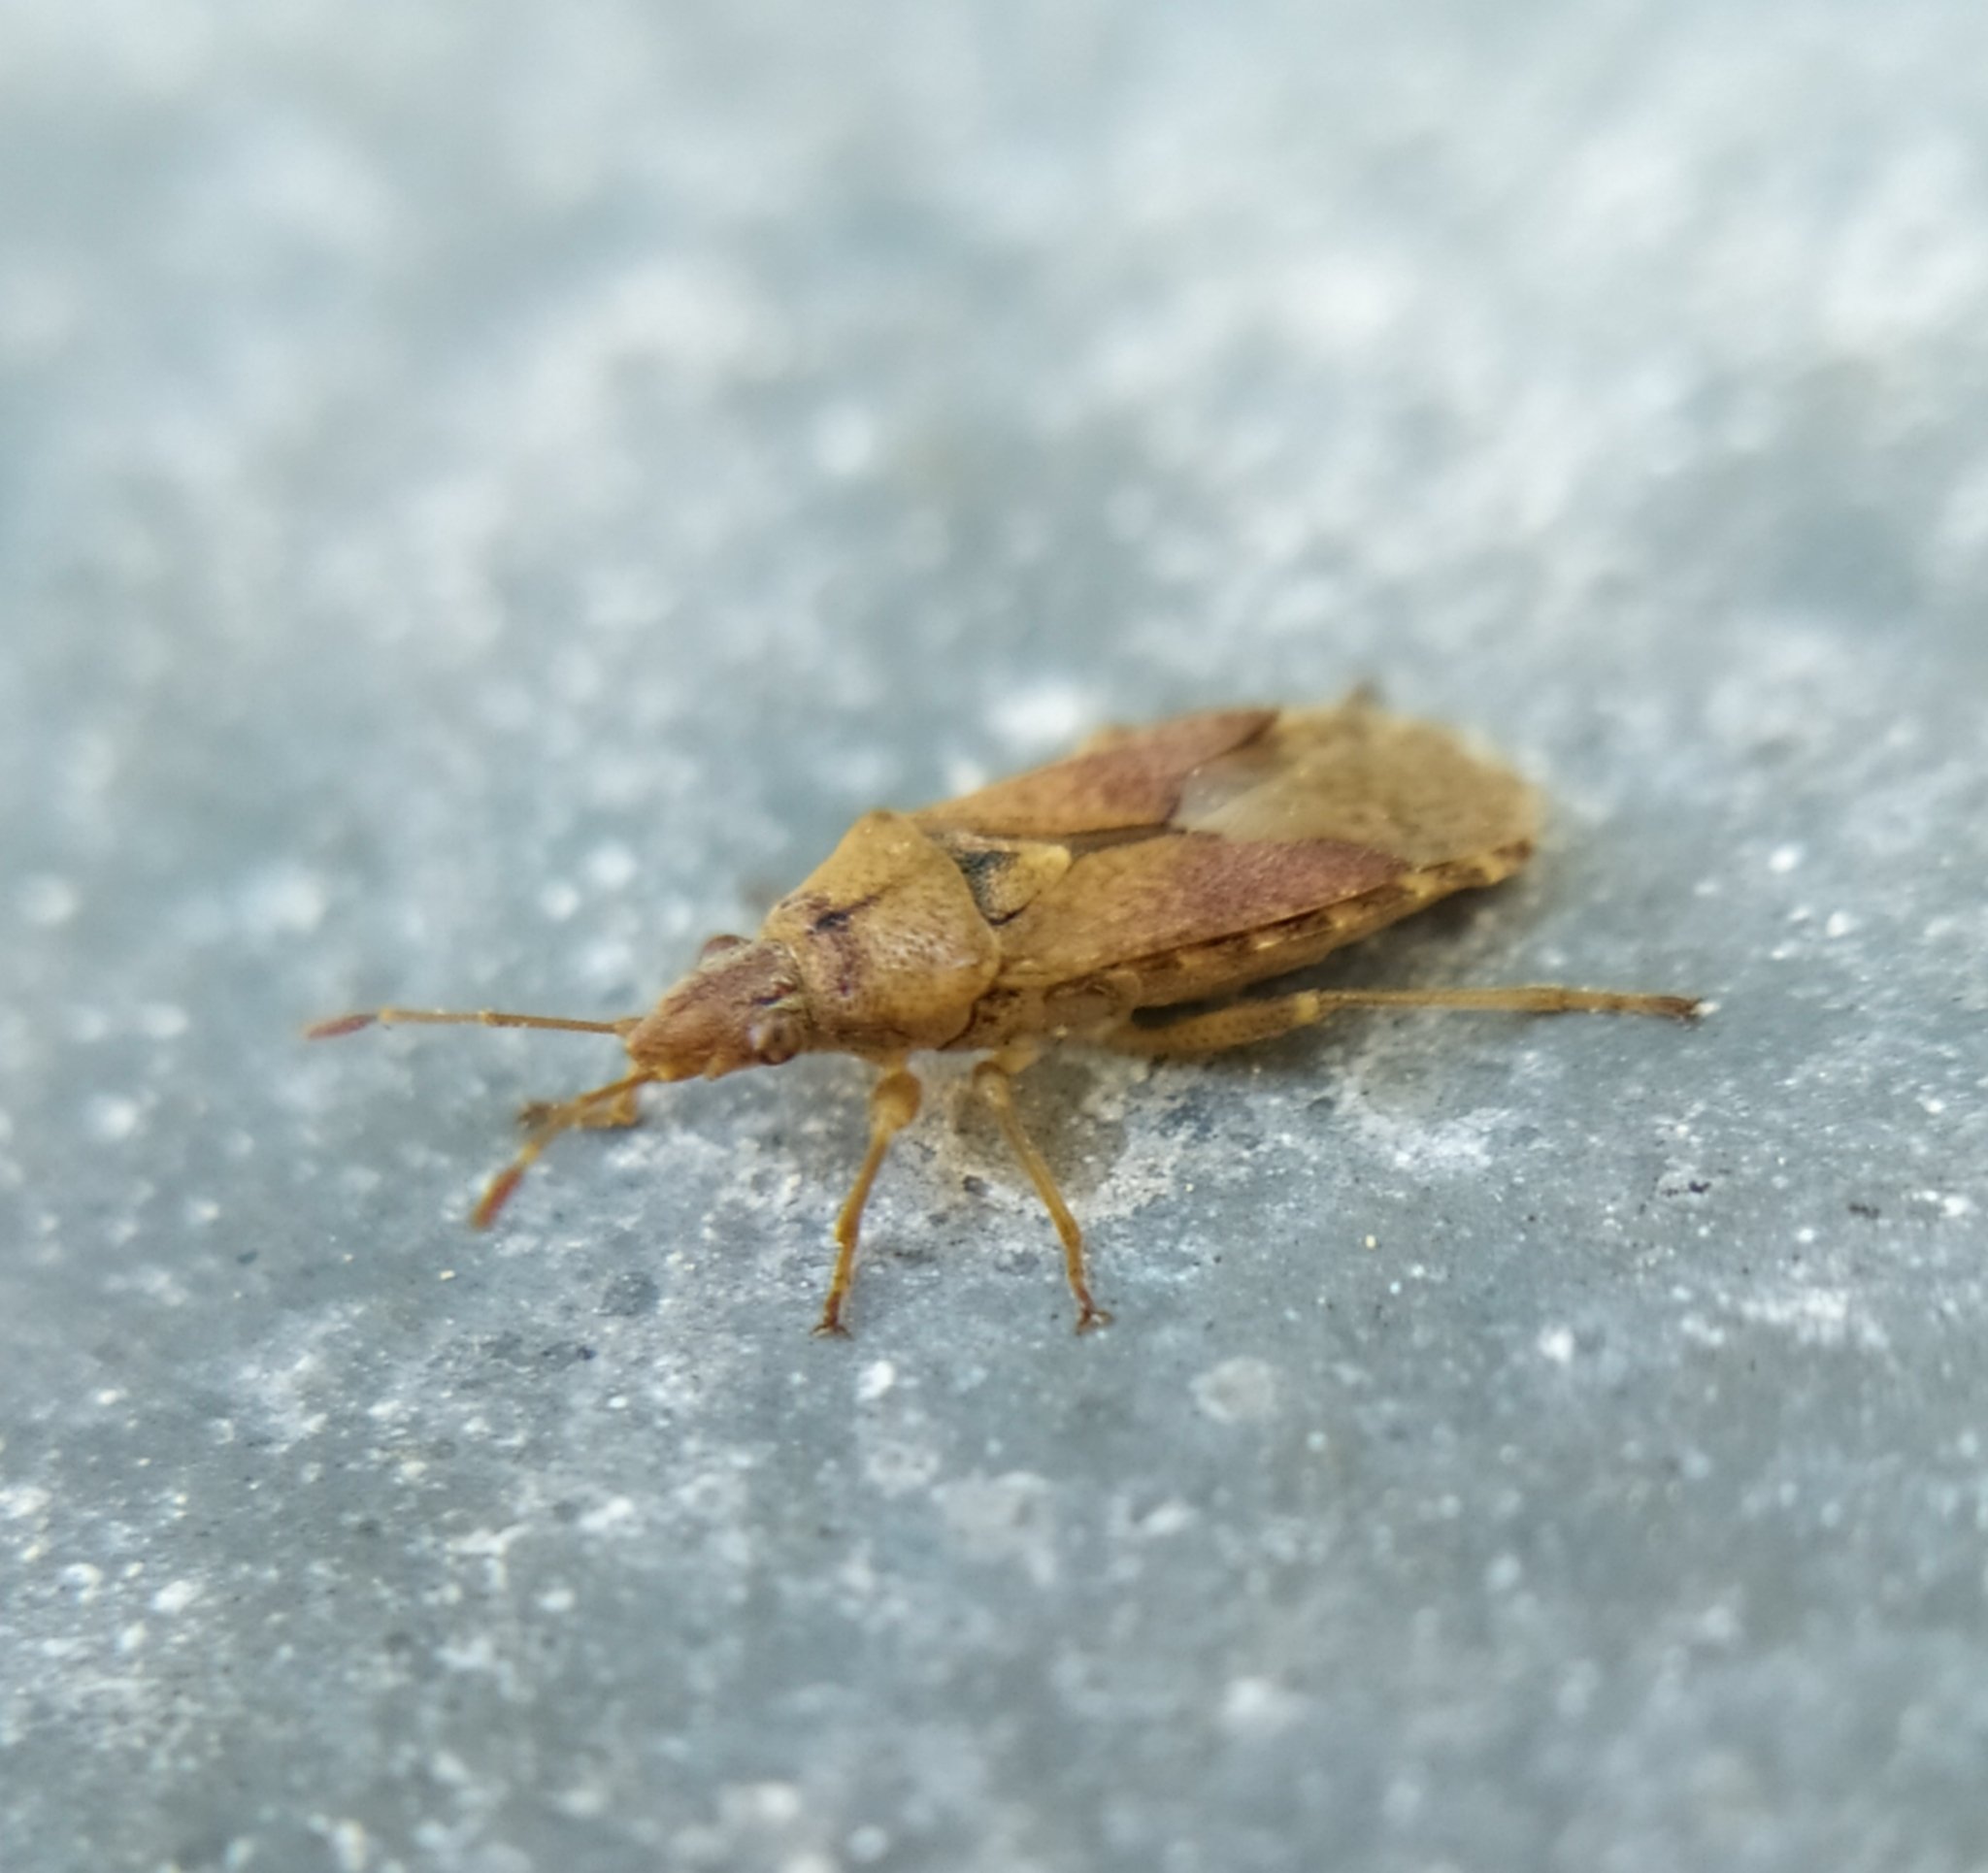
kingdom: Animalia
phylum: Arthropoda
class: Insecta
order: Hemiptera
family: Lygaeidae
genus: Orsillus
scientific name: Orsillus depressus
